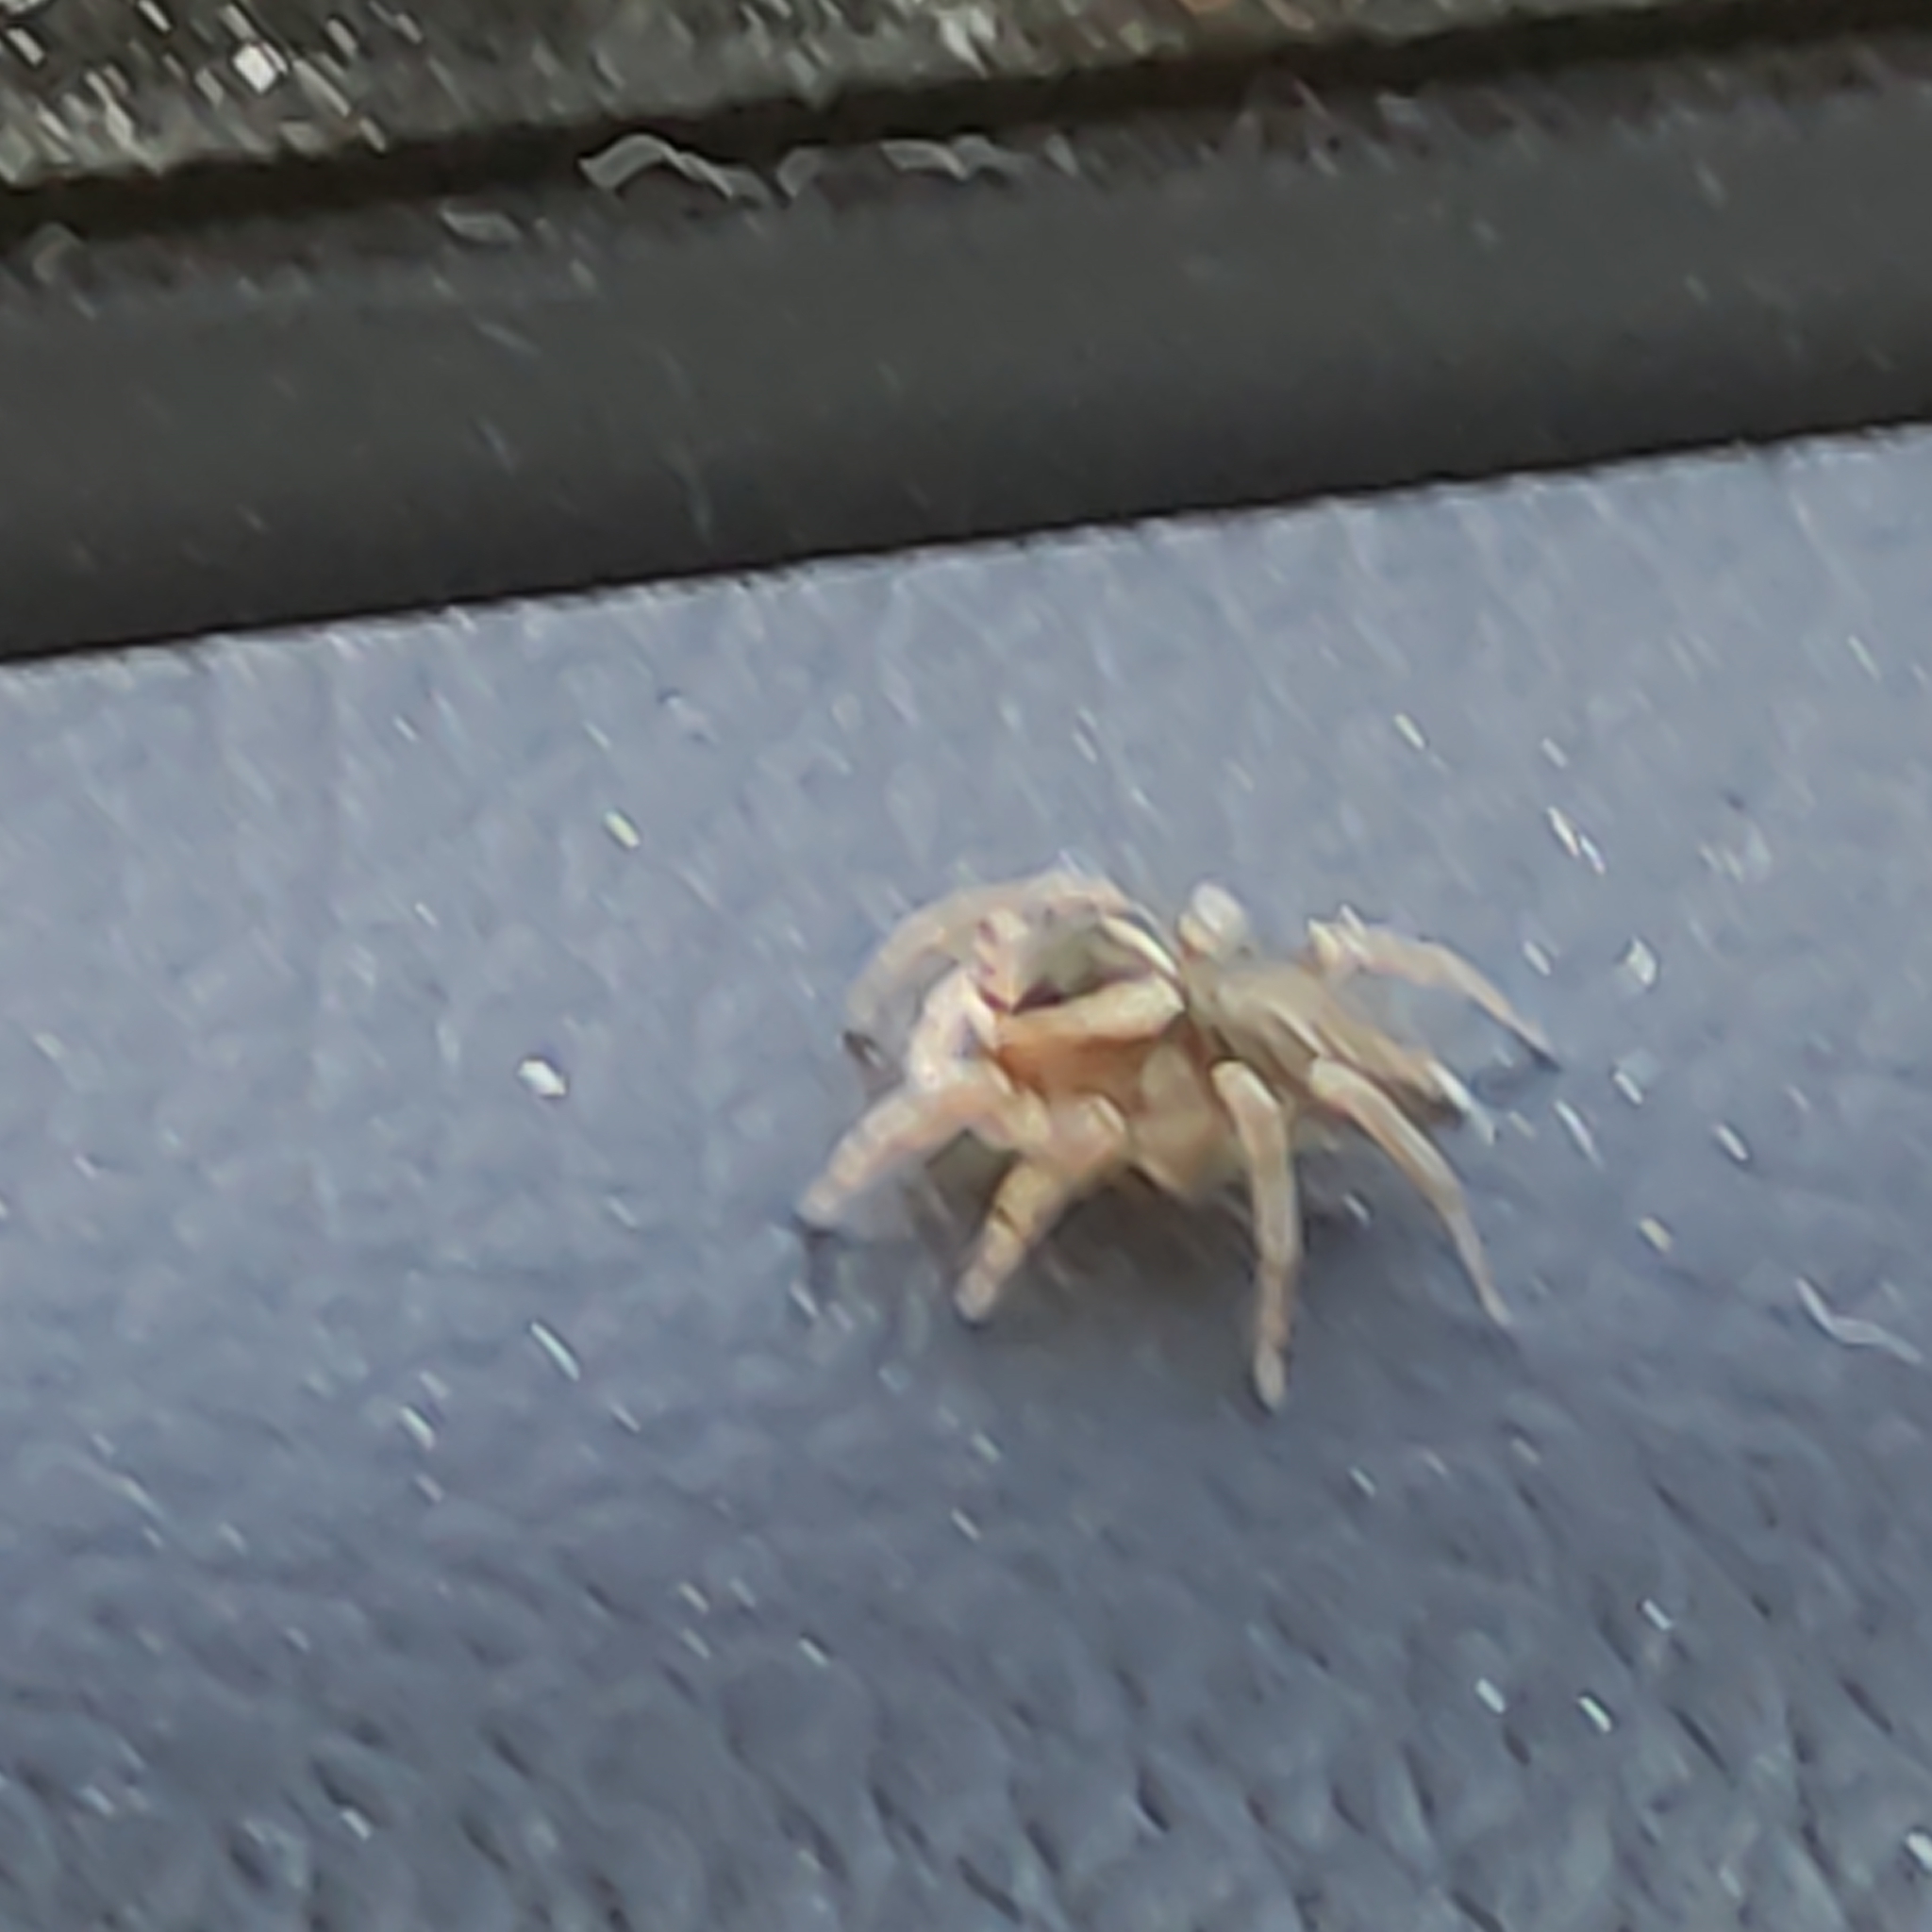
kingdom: Animalia
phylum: Arthropoda
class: Arachnida
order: Araneae
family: Salticidae
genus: Maratus
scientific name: Maratus griseus
